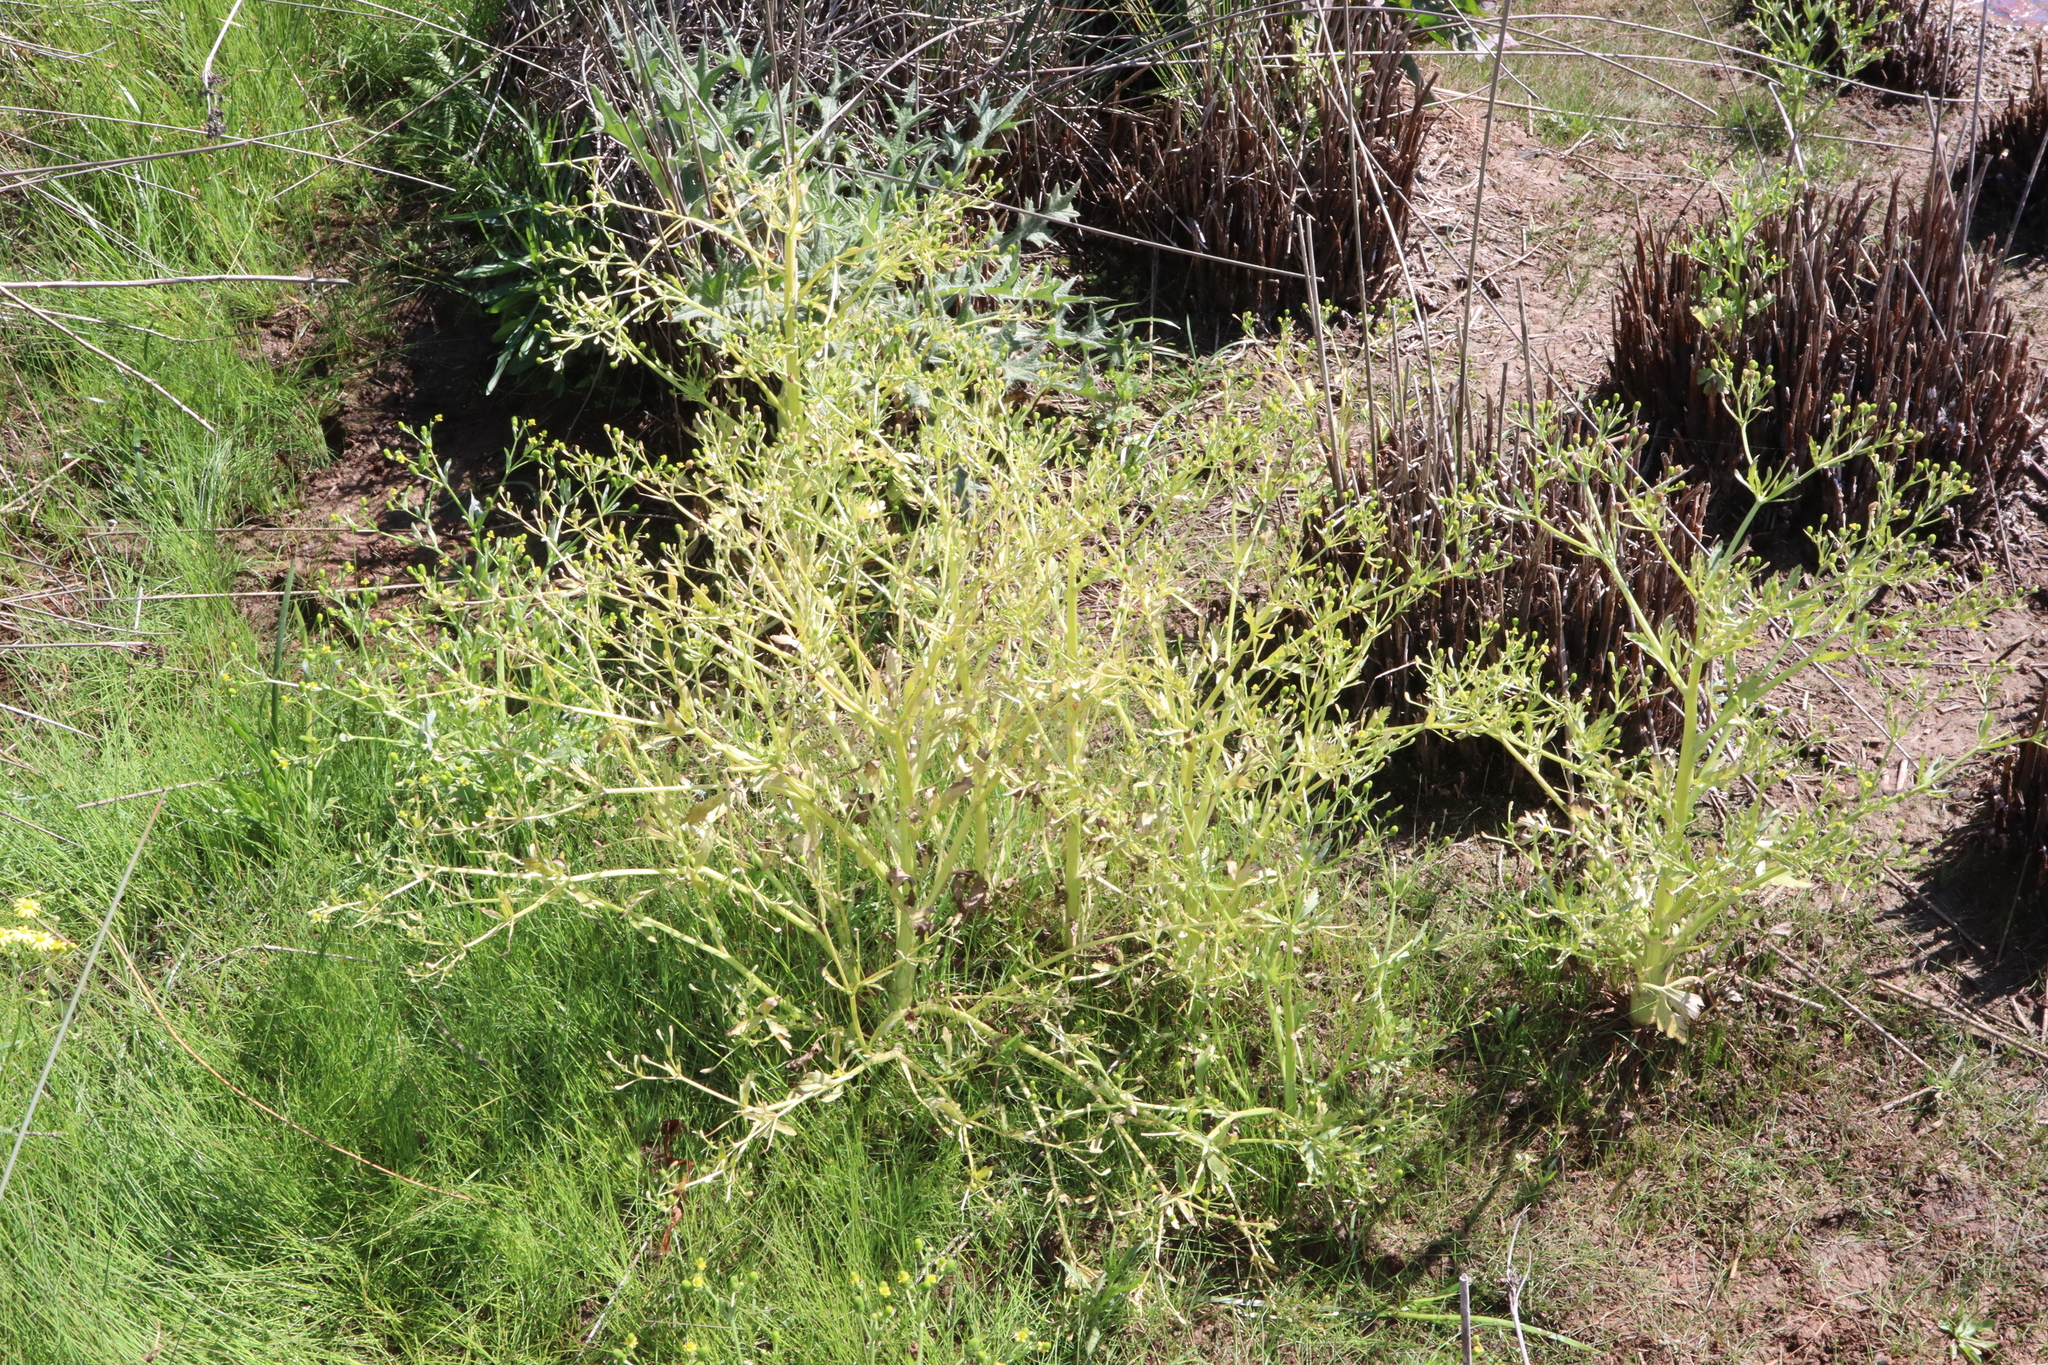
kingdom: Plantae
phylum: Tracheophyta
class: Magnoliopsida
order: Ranunculales
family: Ranunculaceae
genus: Ranunculus
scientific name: Ranunculus sceleratus
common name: Celery-leaved buttercup
